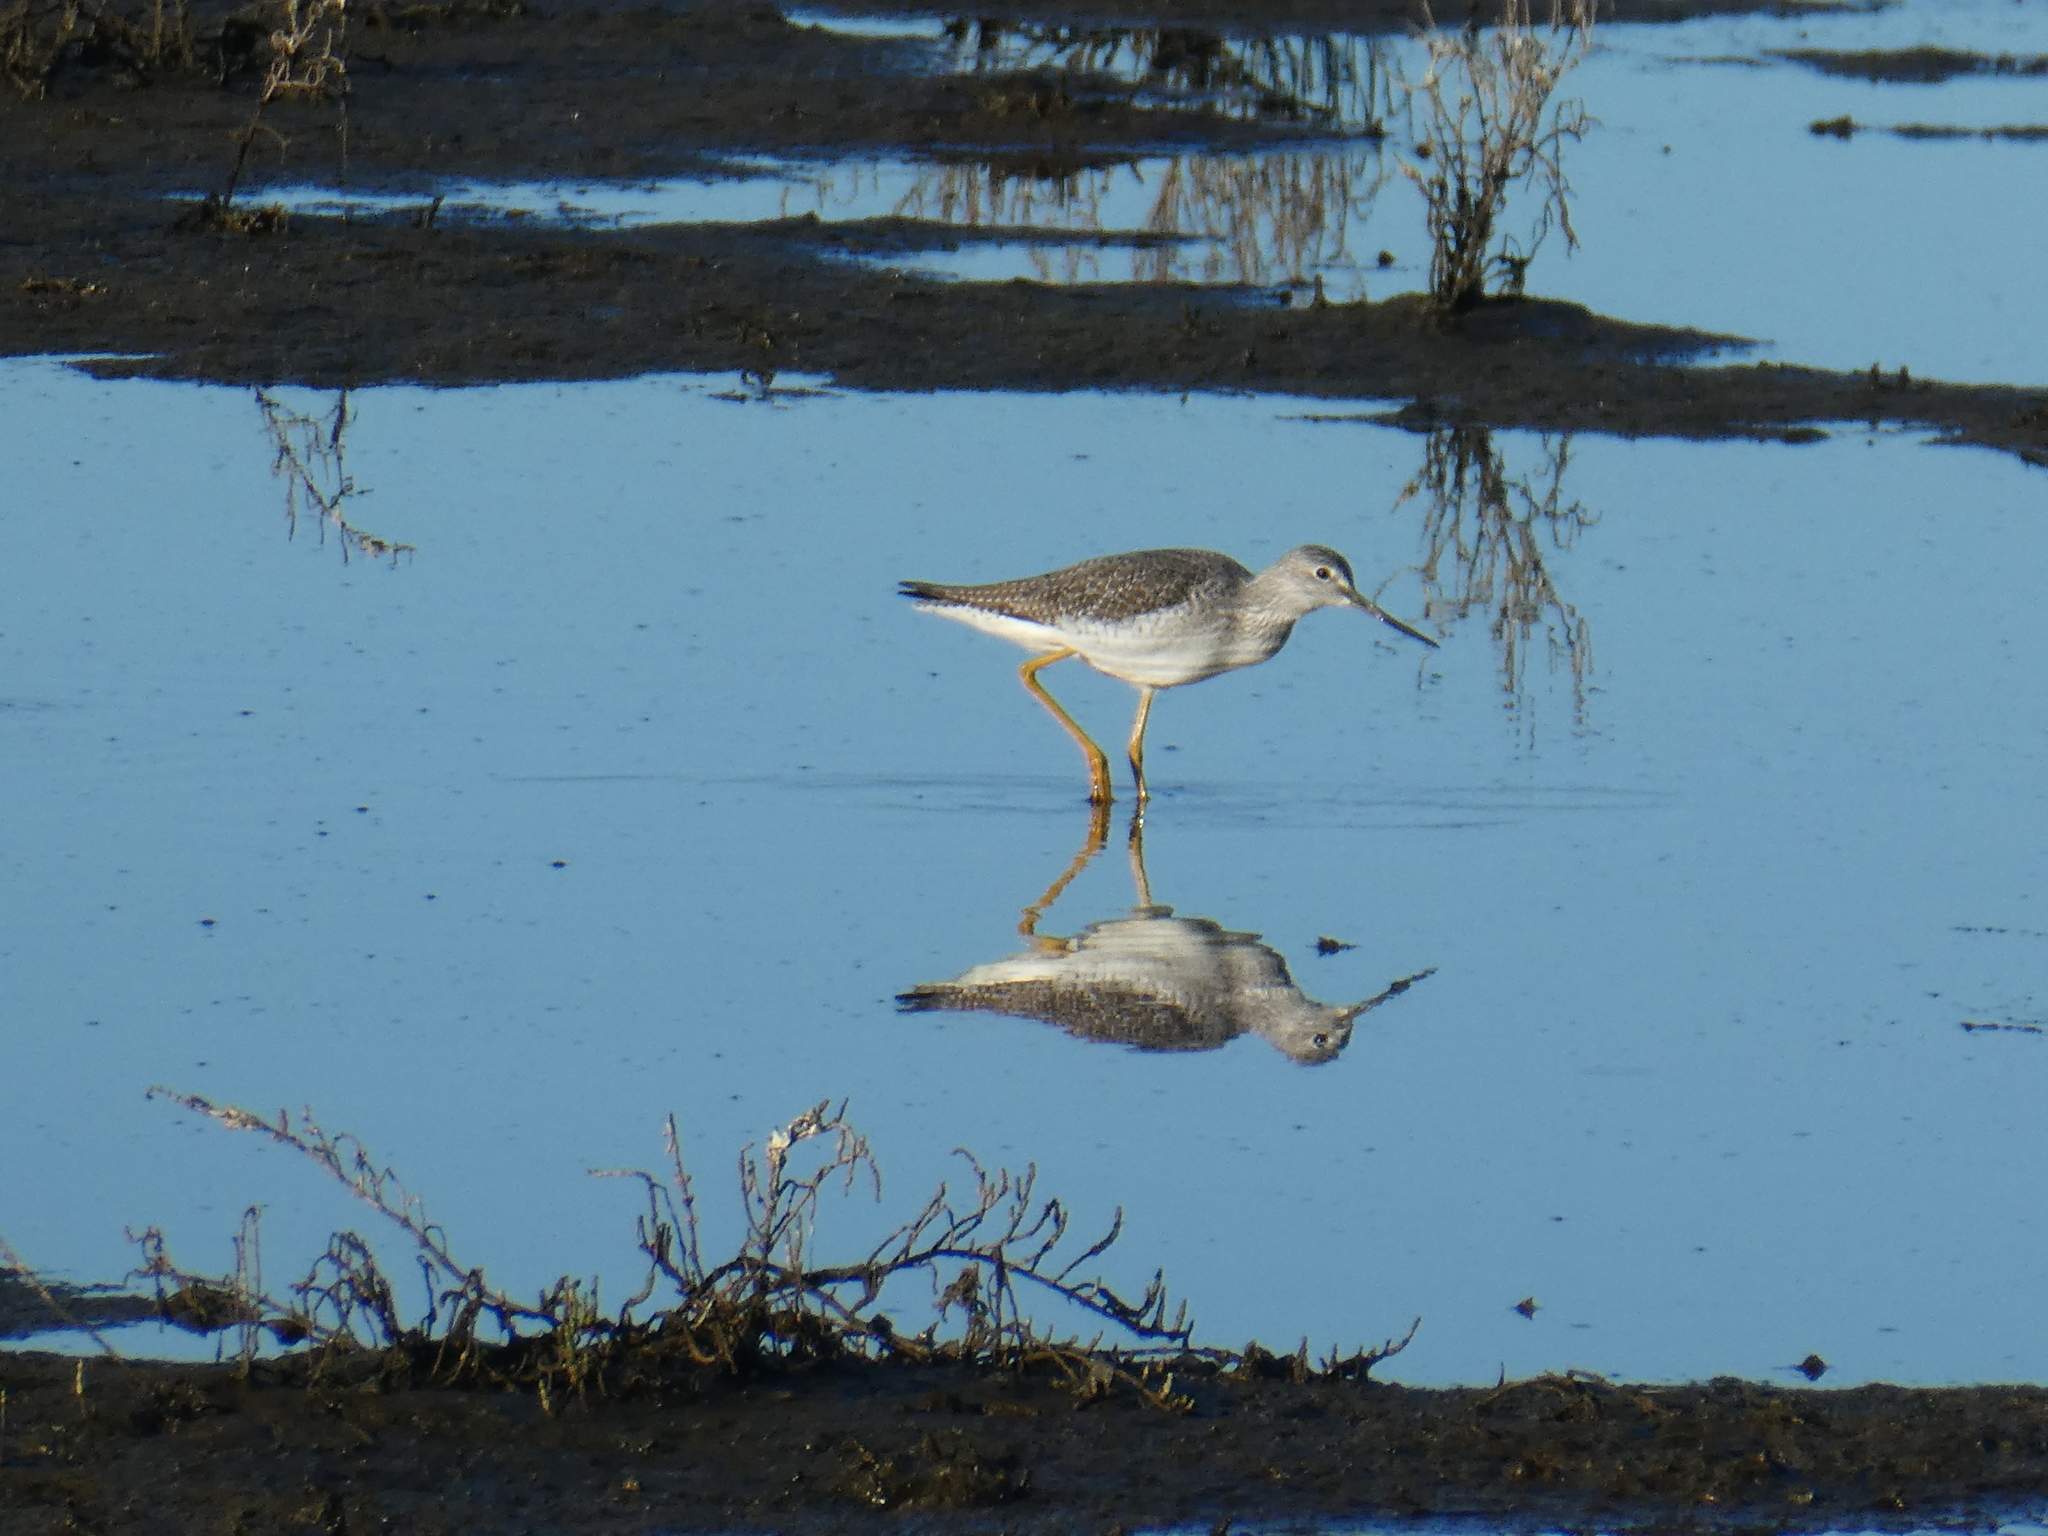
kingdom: Animalia
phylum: Chordata
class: Aves
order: Charadriiformes
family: Scolopacidae
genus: Tringa
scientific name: Tringa melanoleuca
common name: Greater yellowlegs
